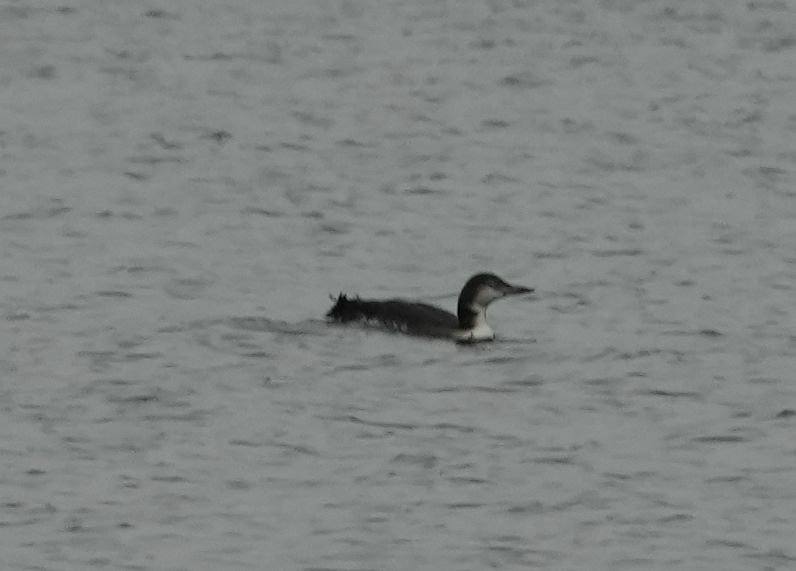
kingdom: Animalia
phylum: Chordata
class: Aves
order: Gaviiformes
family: Gaviidae
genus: Gavia
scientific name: Gavia immer
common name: Common loon
